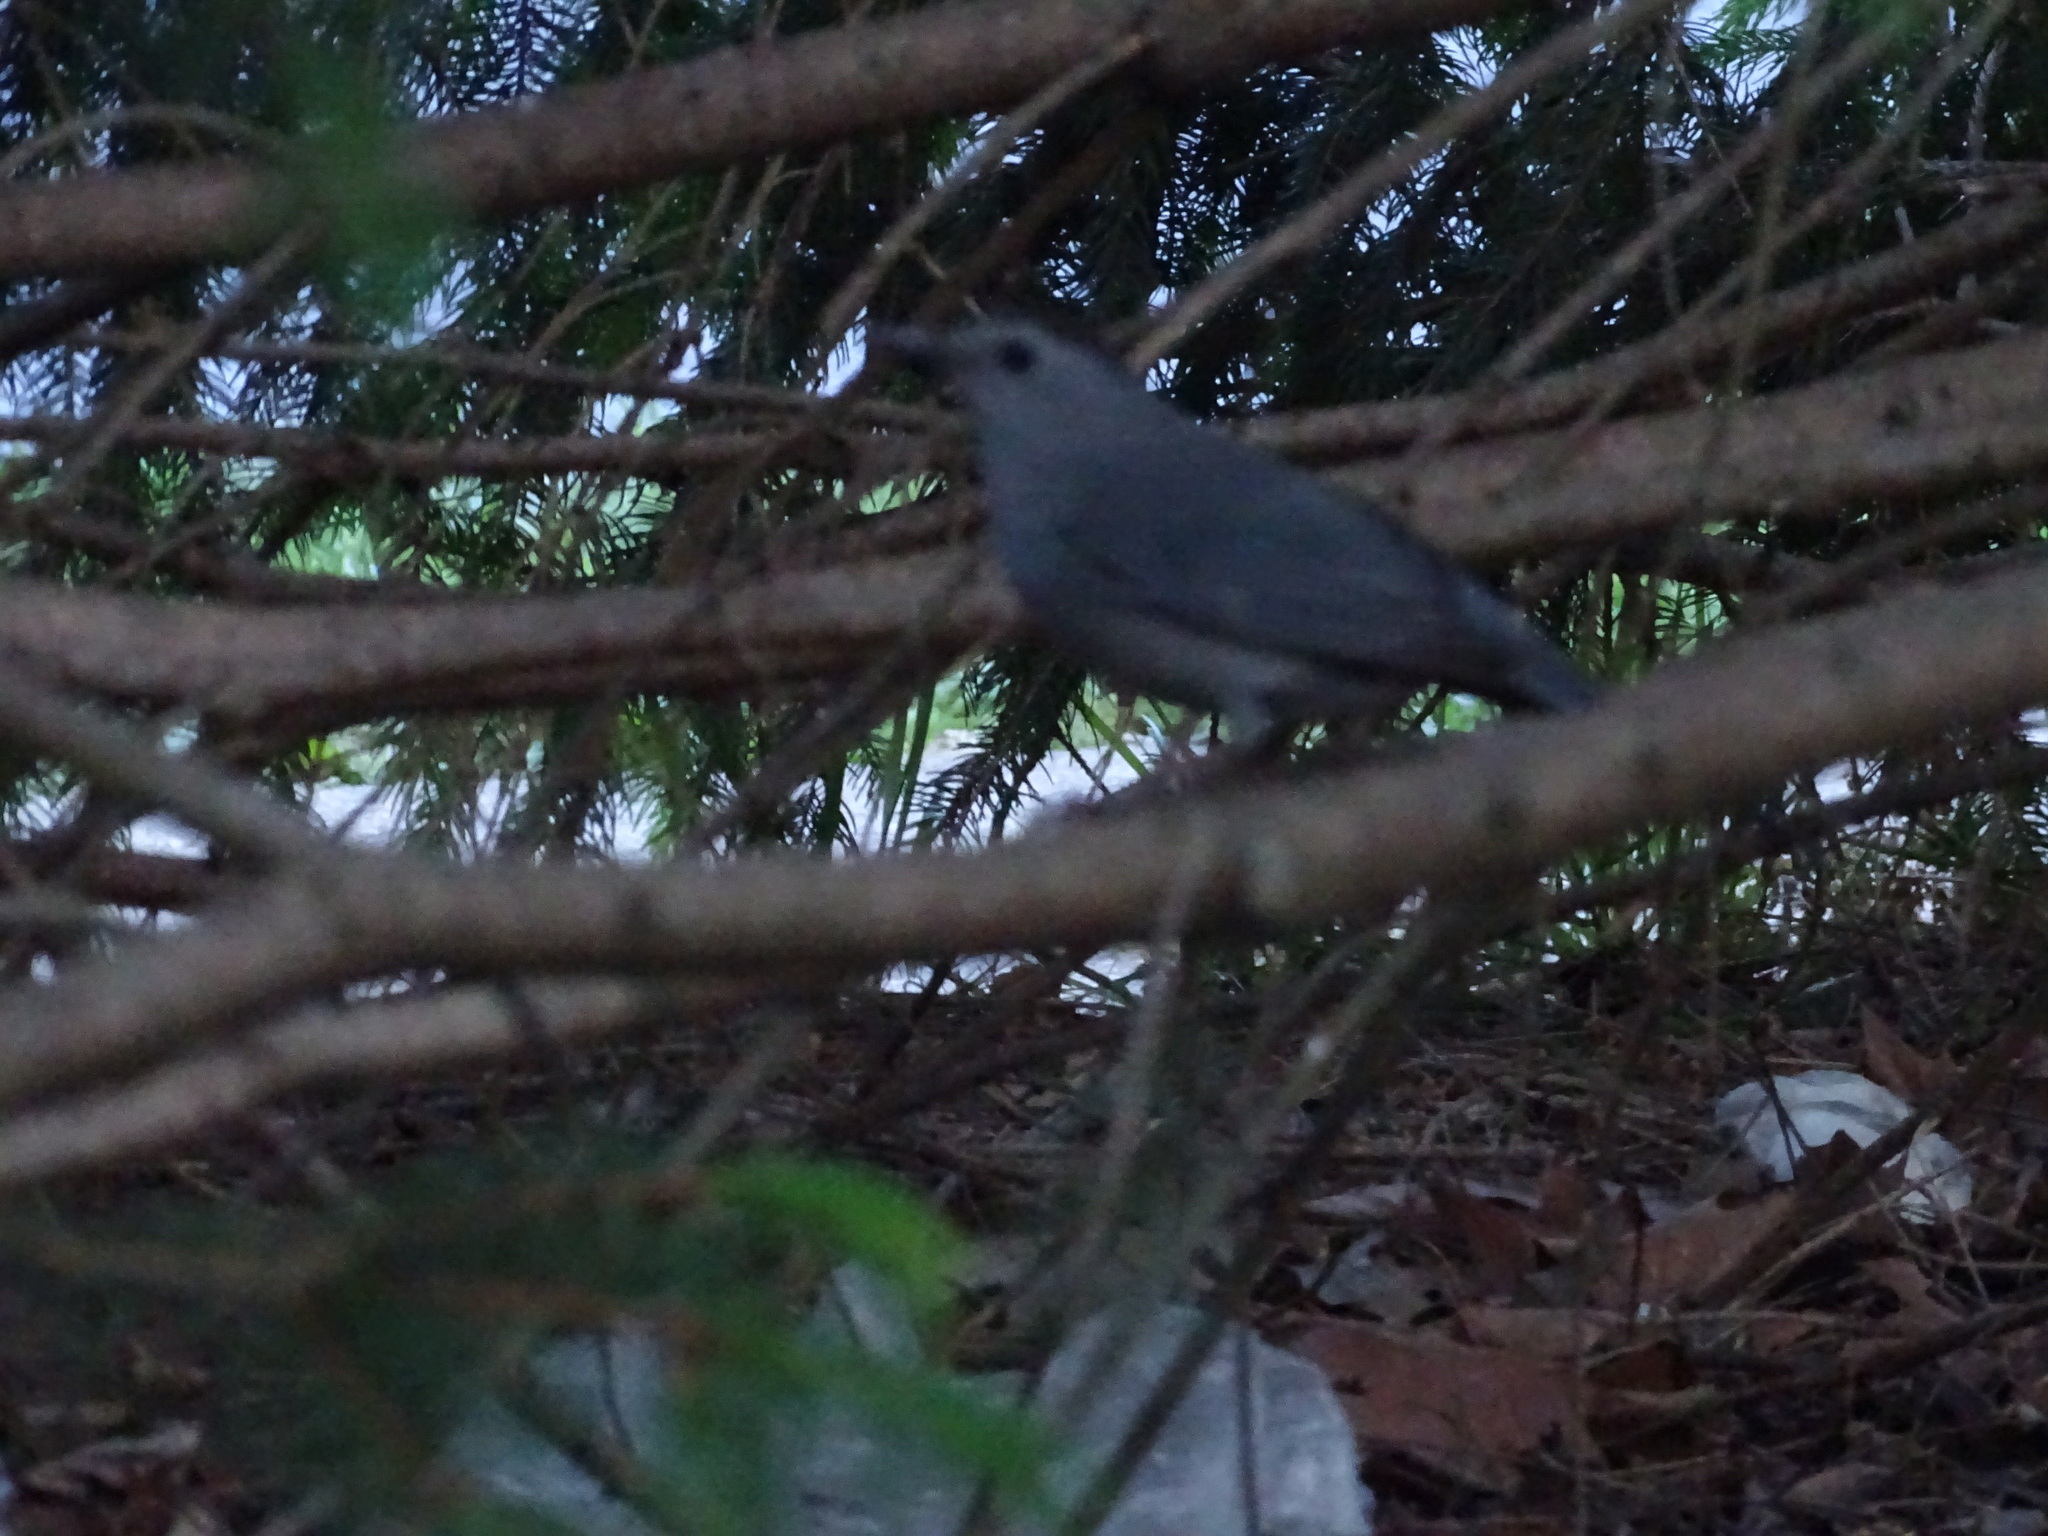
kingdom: Animalia
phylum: Chordata
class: Aves
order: Passeriformes
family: Mimidae
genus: Dumetella
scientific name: Dumetella carolinensis
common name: Gray catbird
